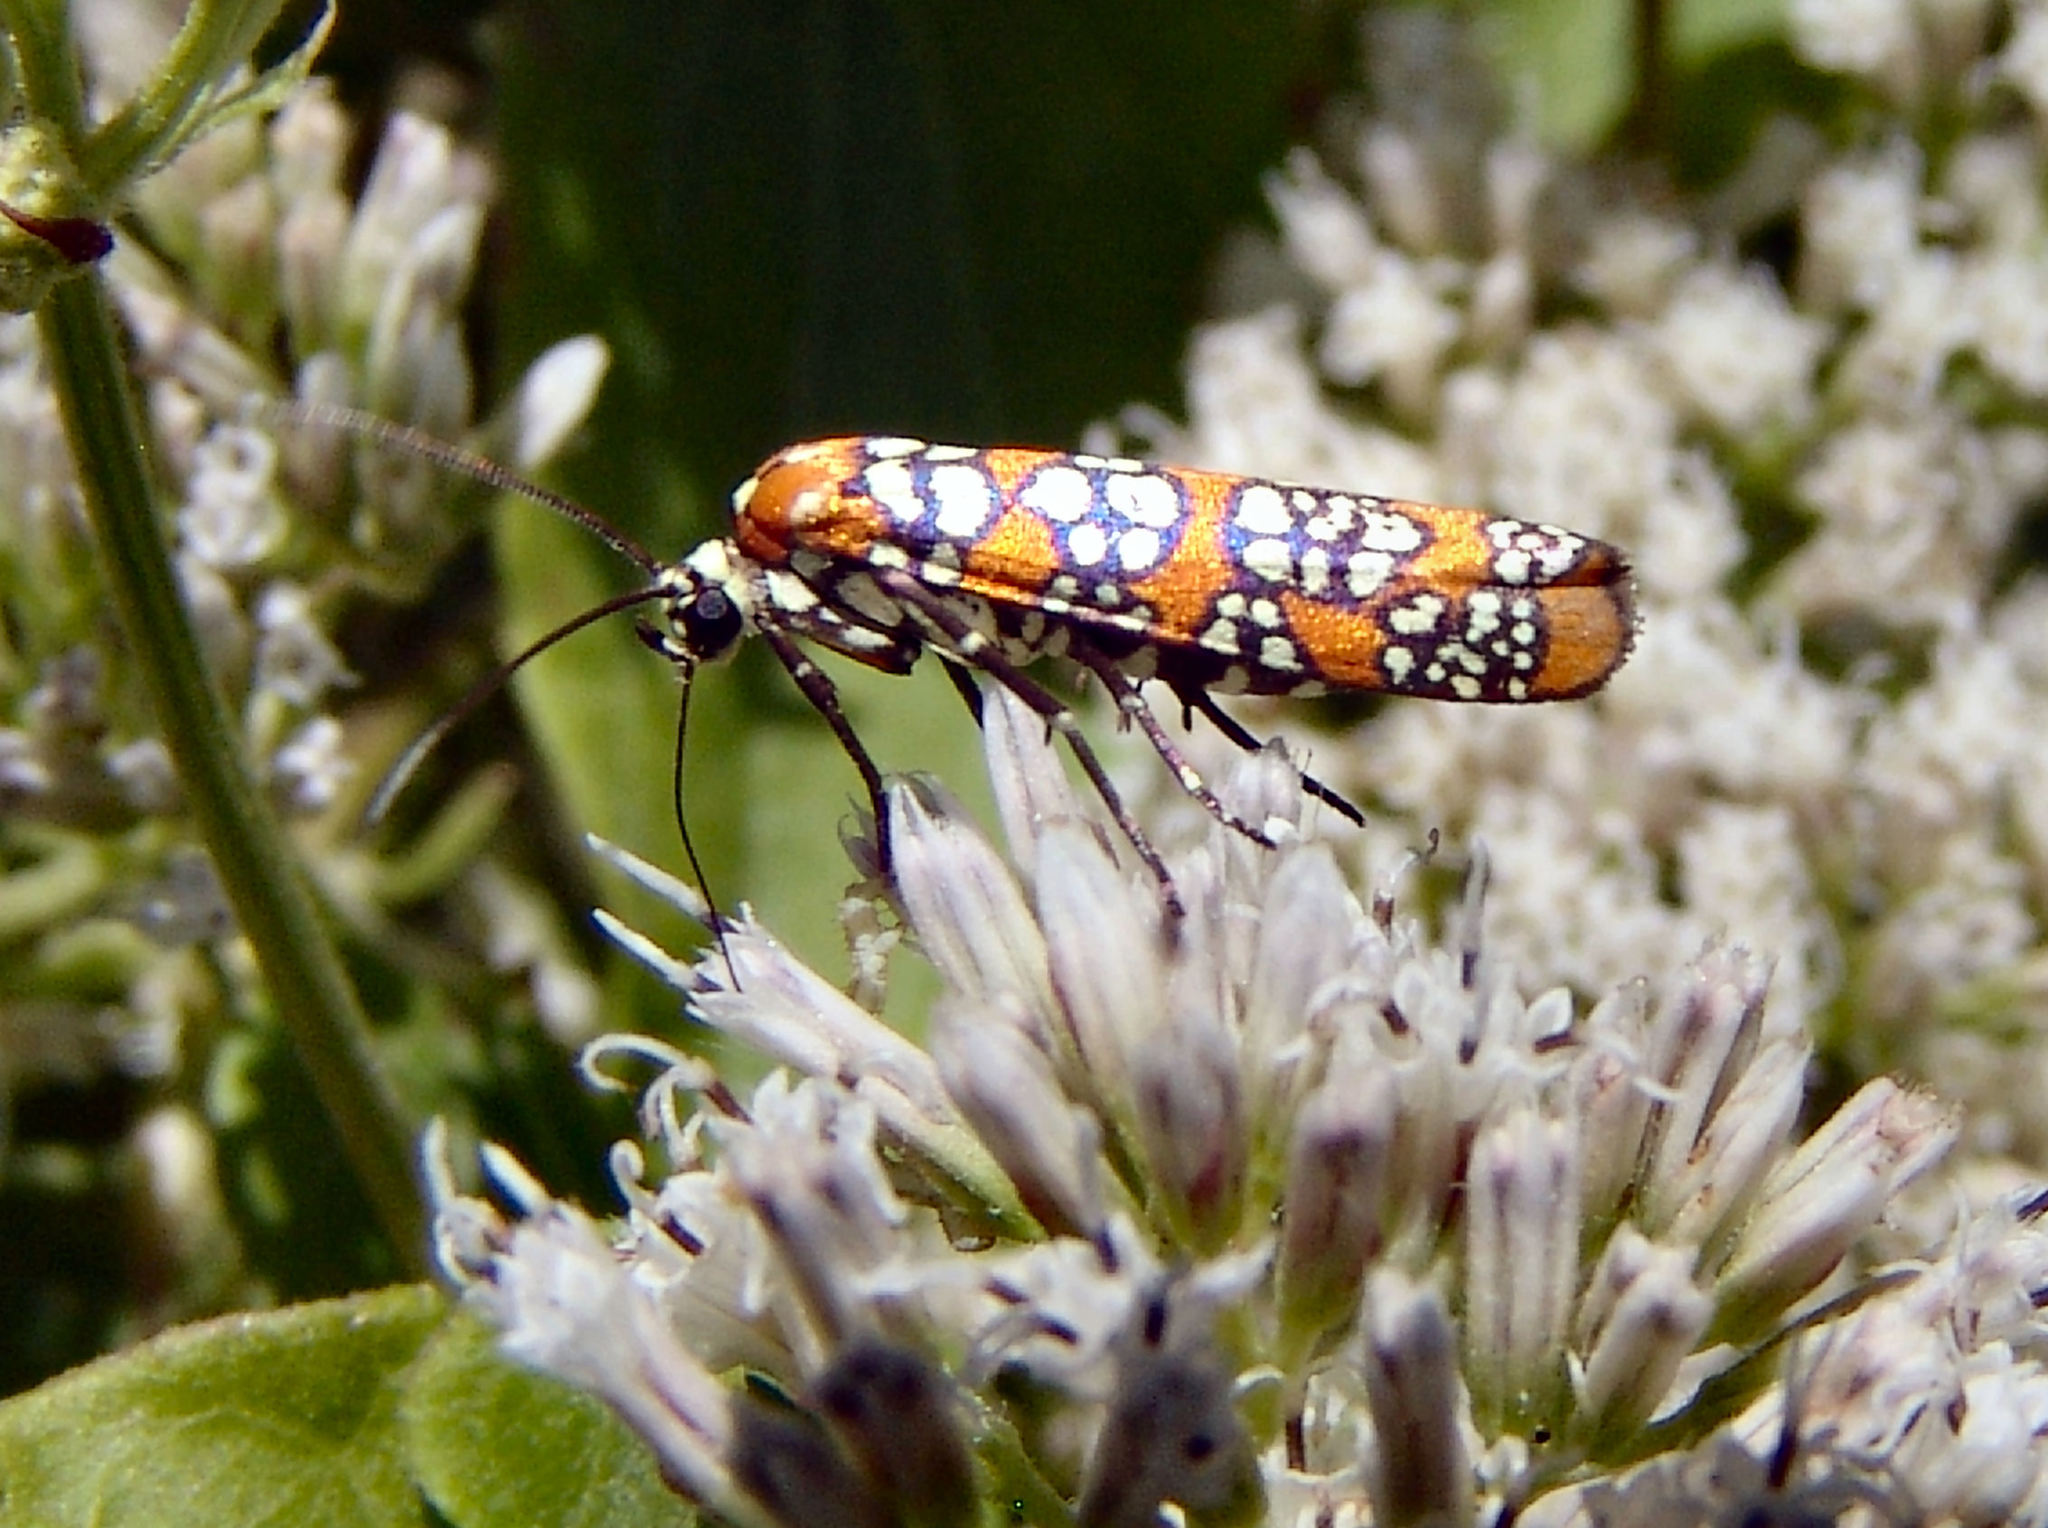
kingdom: Animalia
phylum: Arthropoda
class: Insecta
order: Lepidoptera
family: Attevidae
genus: Atteva
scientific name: Atteva punctella
